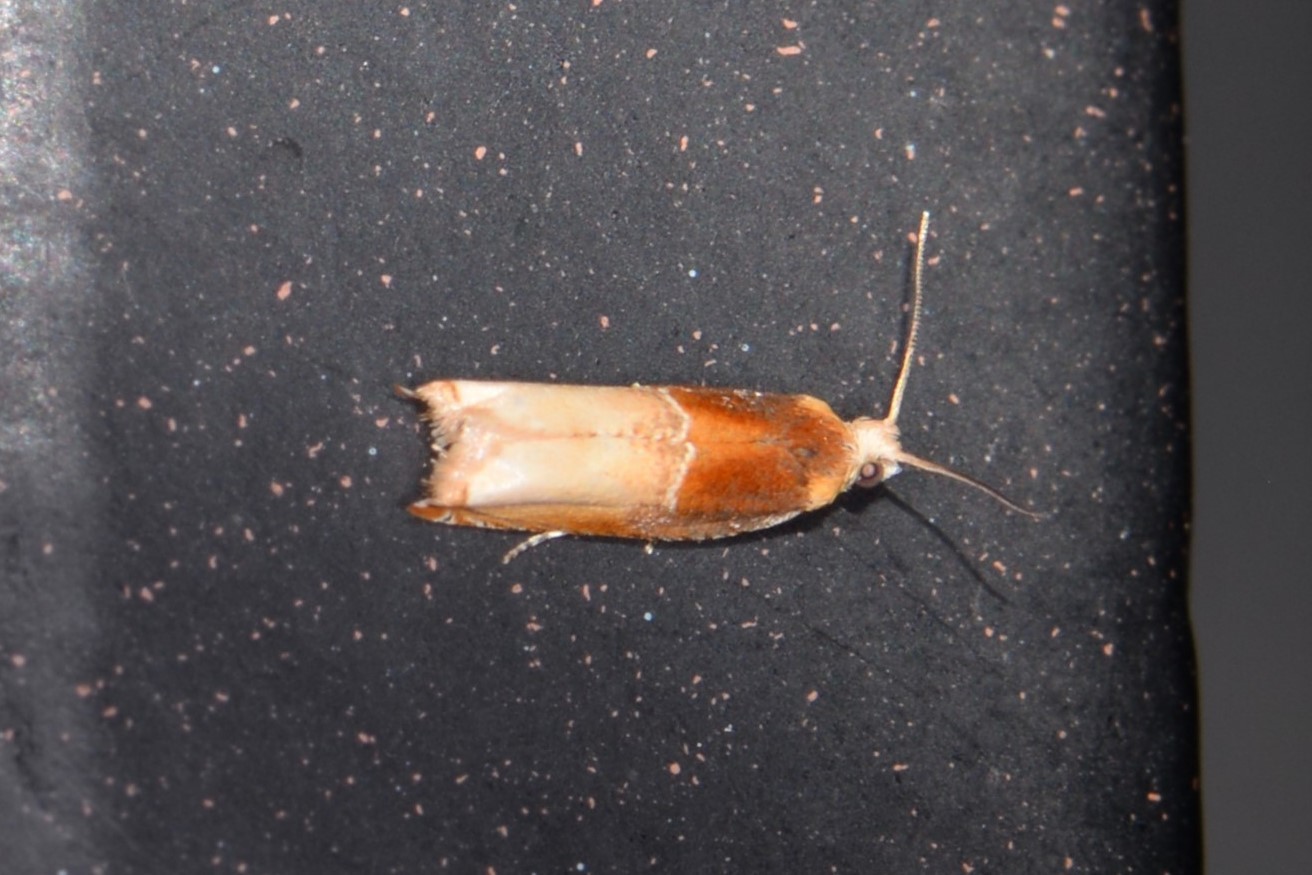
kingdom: Animalia
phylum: Arthropoda
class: Insecta
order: Lepidoptera
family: Tortricidae
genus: Ancylis
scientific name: Ancylis divisana
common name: Two-toned ancylis moth
